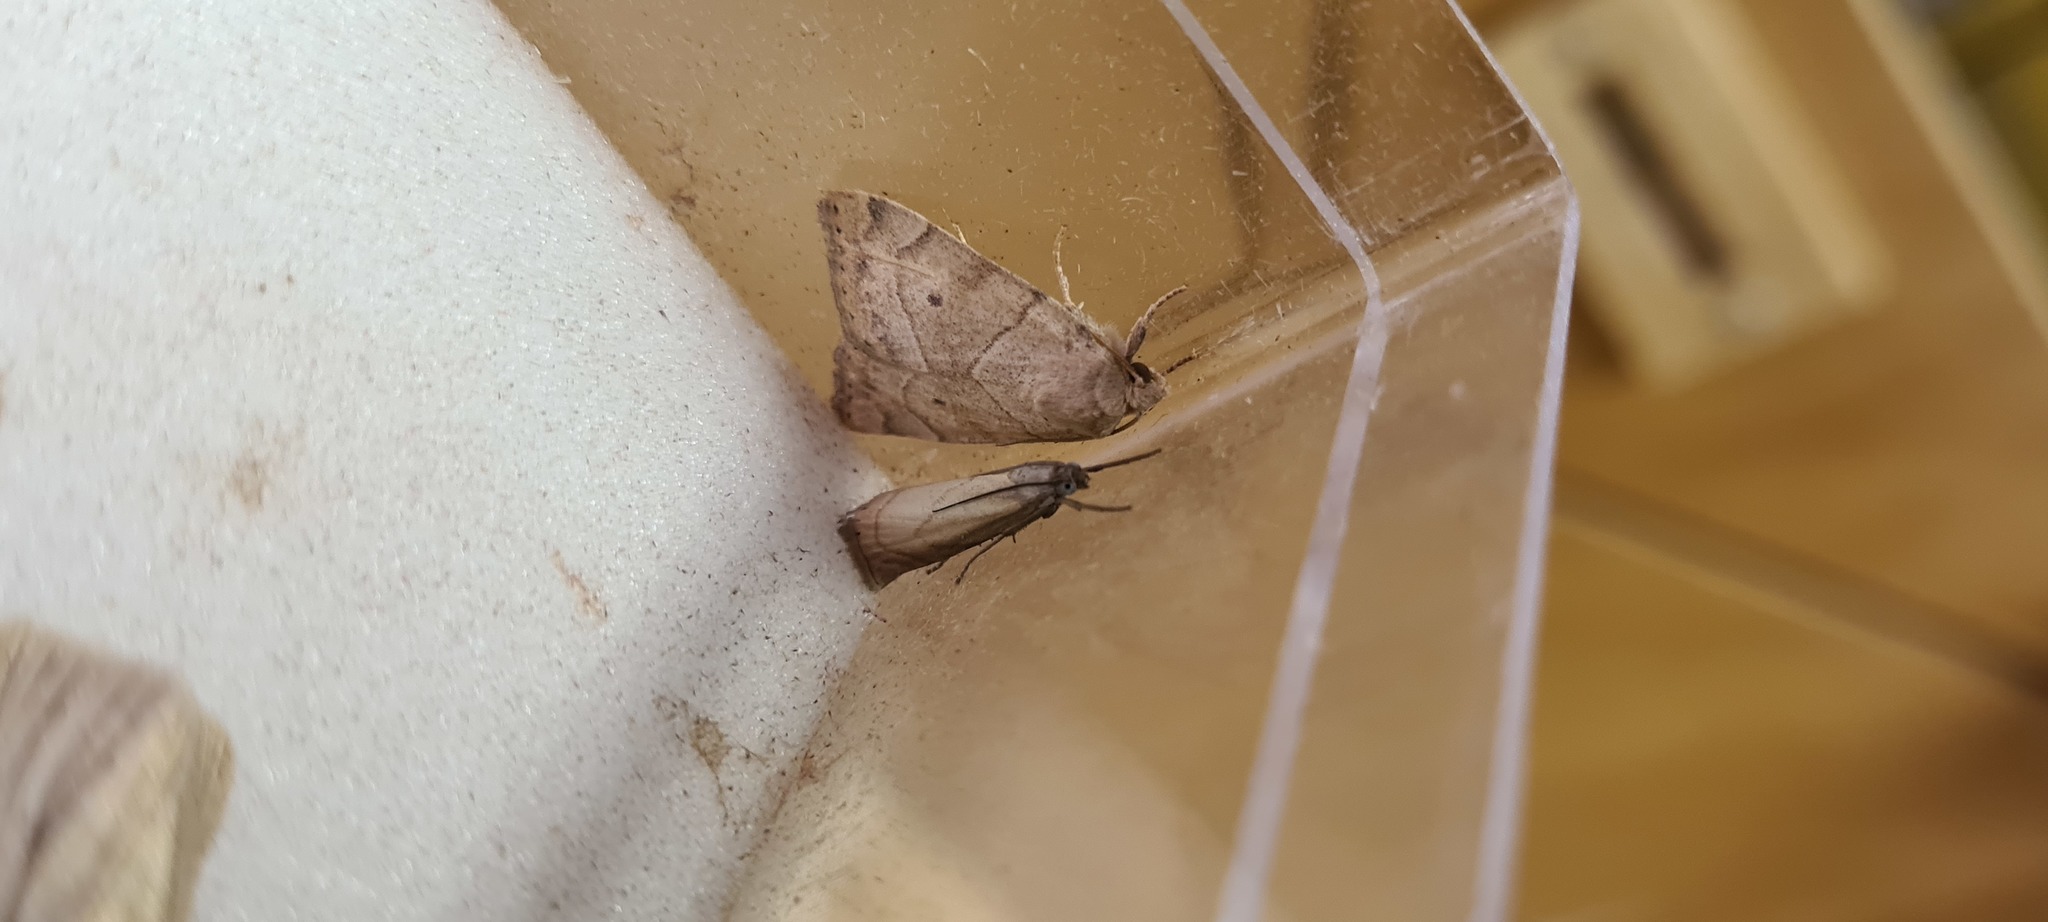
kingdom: Animalia
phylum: Arthropoda
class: Insecta
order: Lepidoptera
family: Crambidae
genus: Chrysoteuchia
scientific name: Chrysoteuchia culmella
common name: Garden grass-veneer
